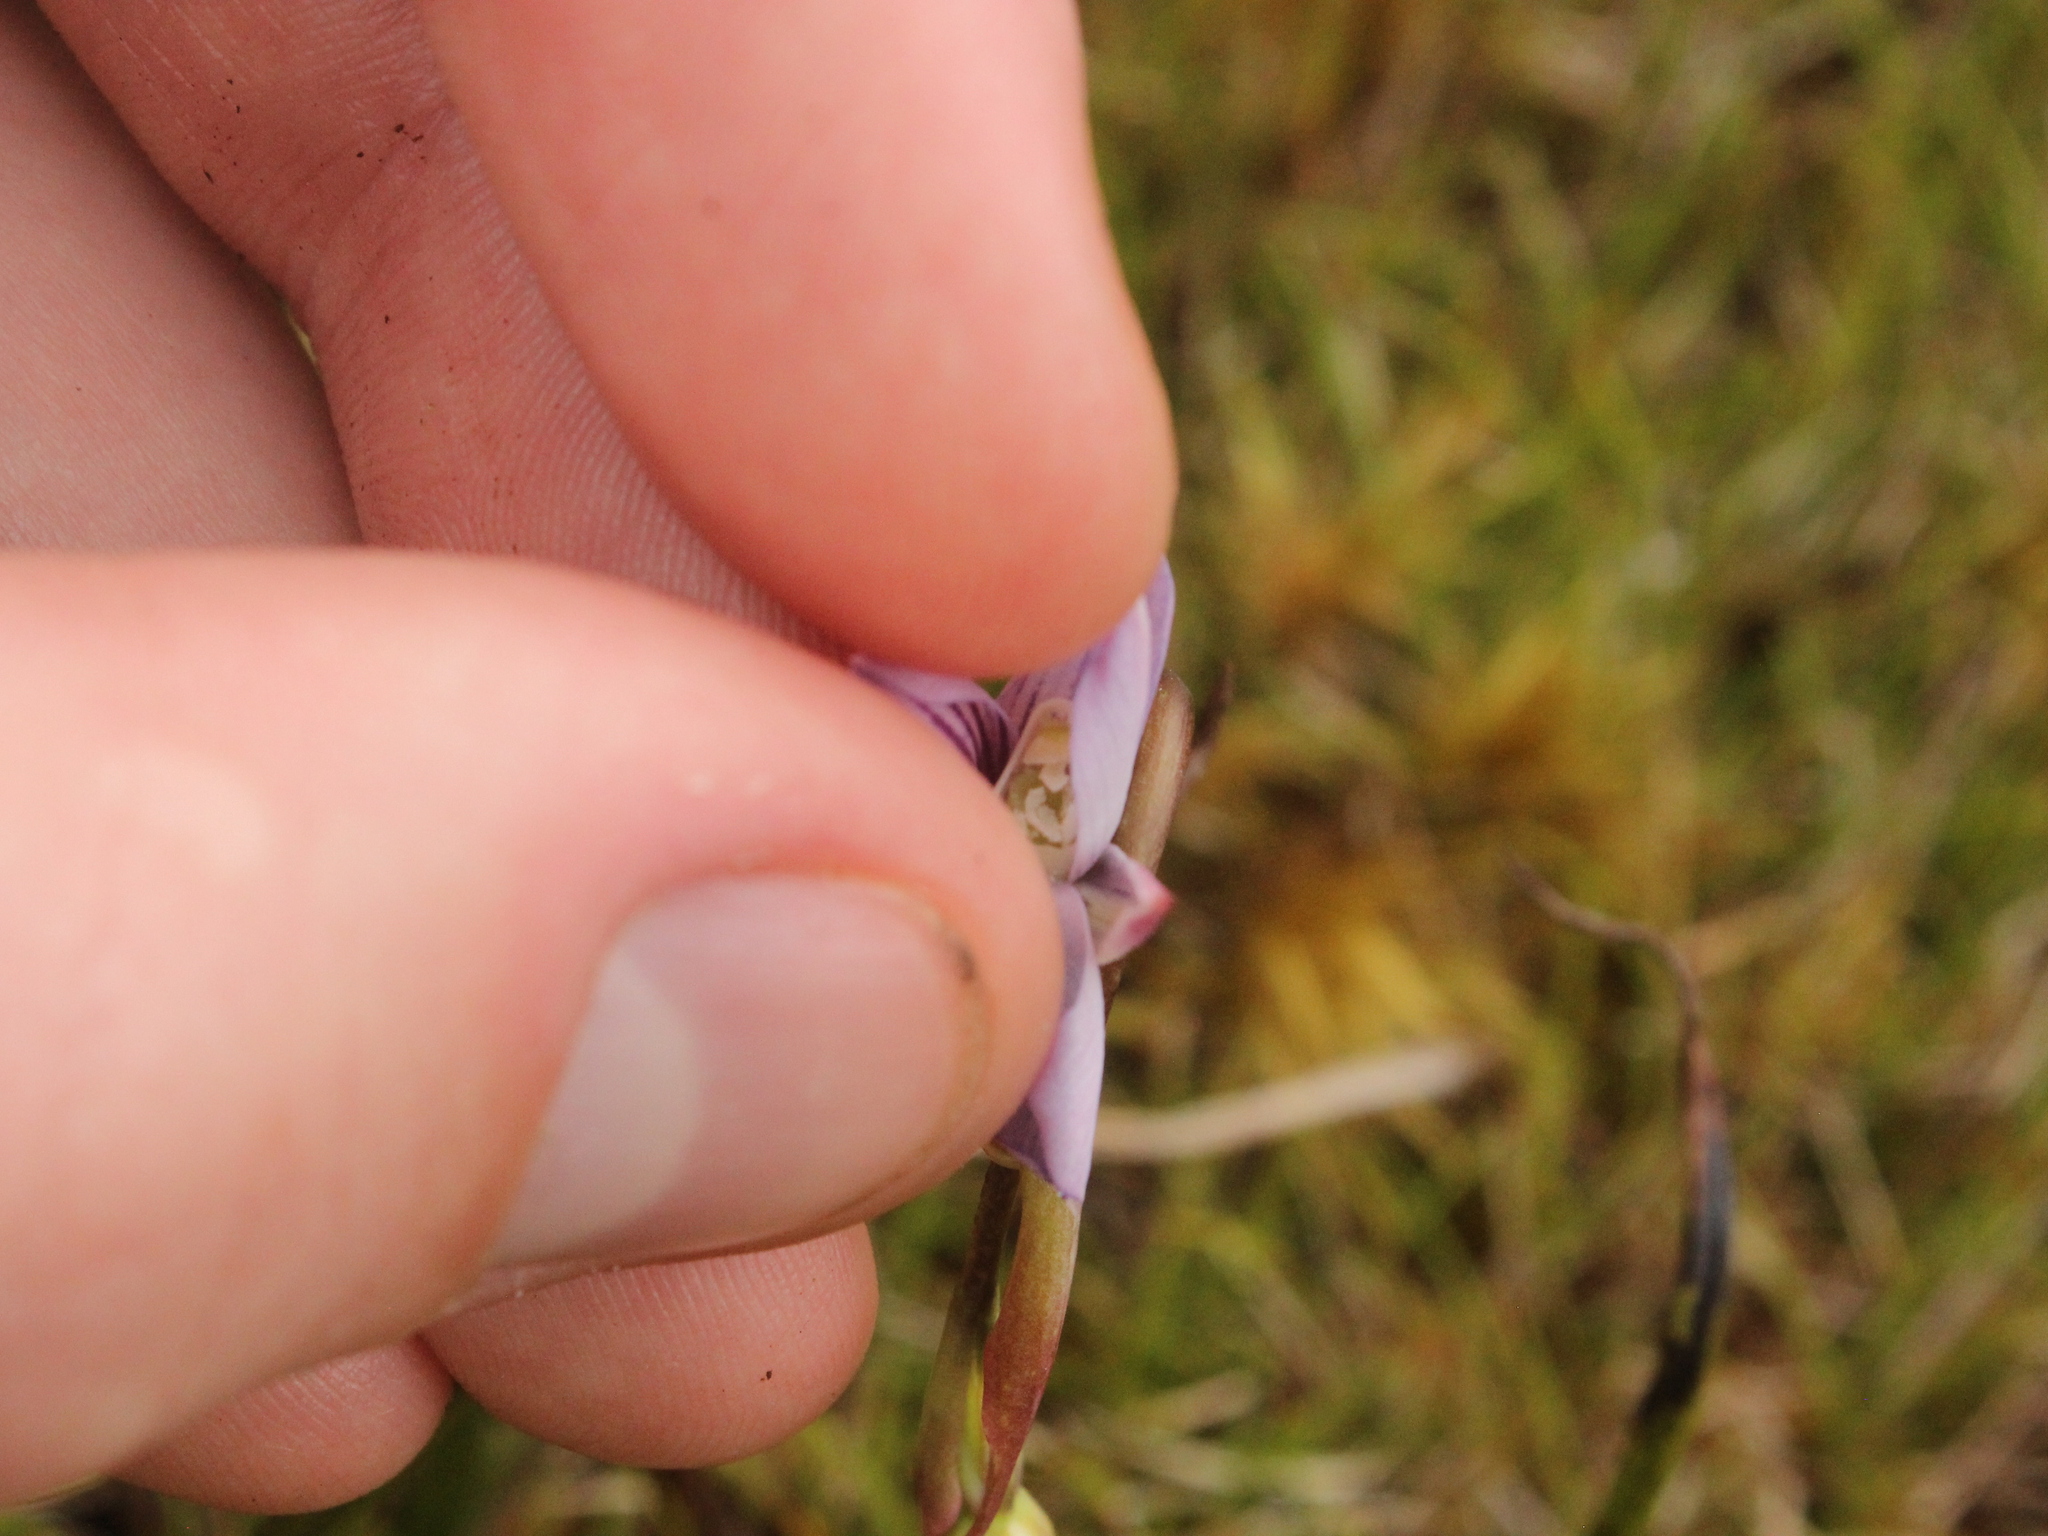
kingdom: Plantae
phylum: Tracheophyta
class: Liliopsida
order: Asparagales
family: Orchidaceae
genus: Thelymitra
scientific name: Thelymitra cyanea
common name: Blue sun-orchid
